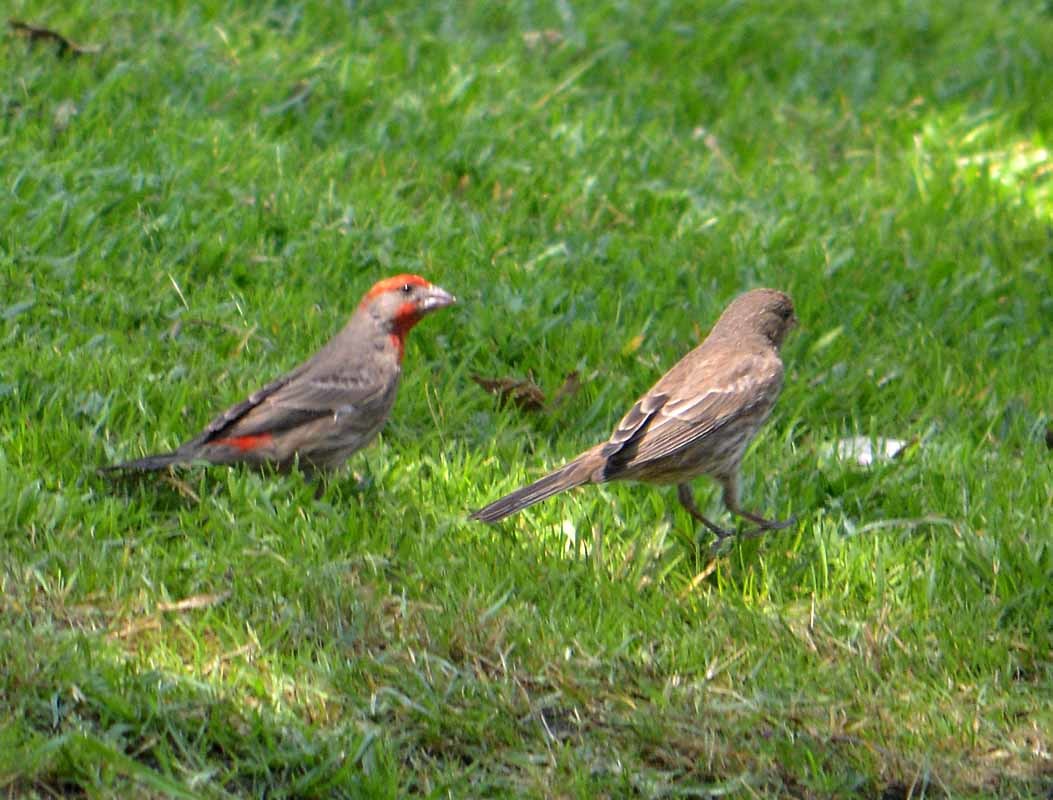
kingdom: Animalia
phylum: Chordata
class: Aves
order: Passeriformes
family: Fringillidae
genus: Haemorhous
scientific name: Haemorhous mexicanus
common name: House finch
